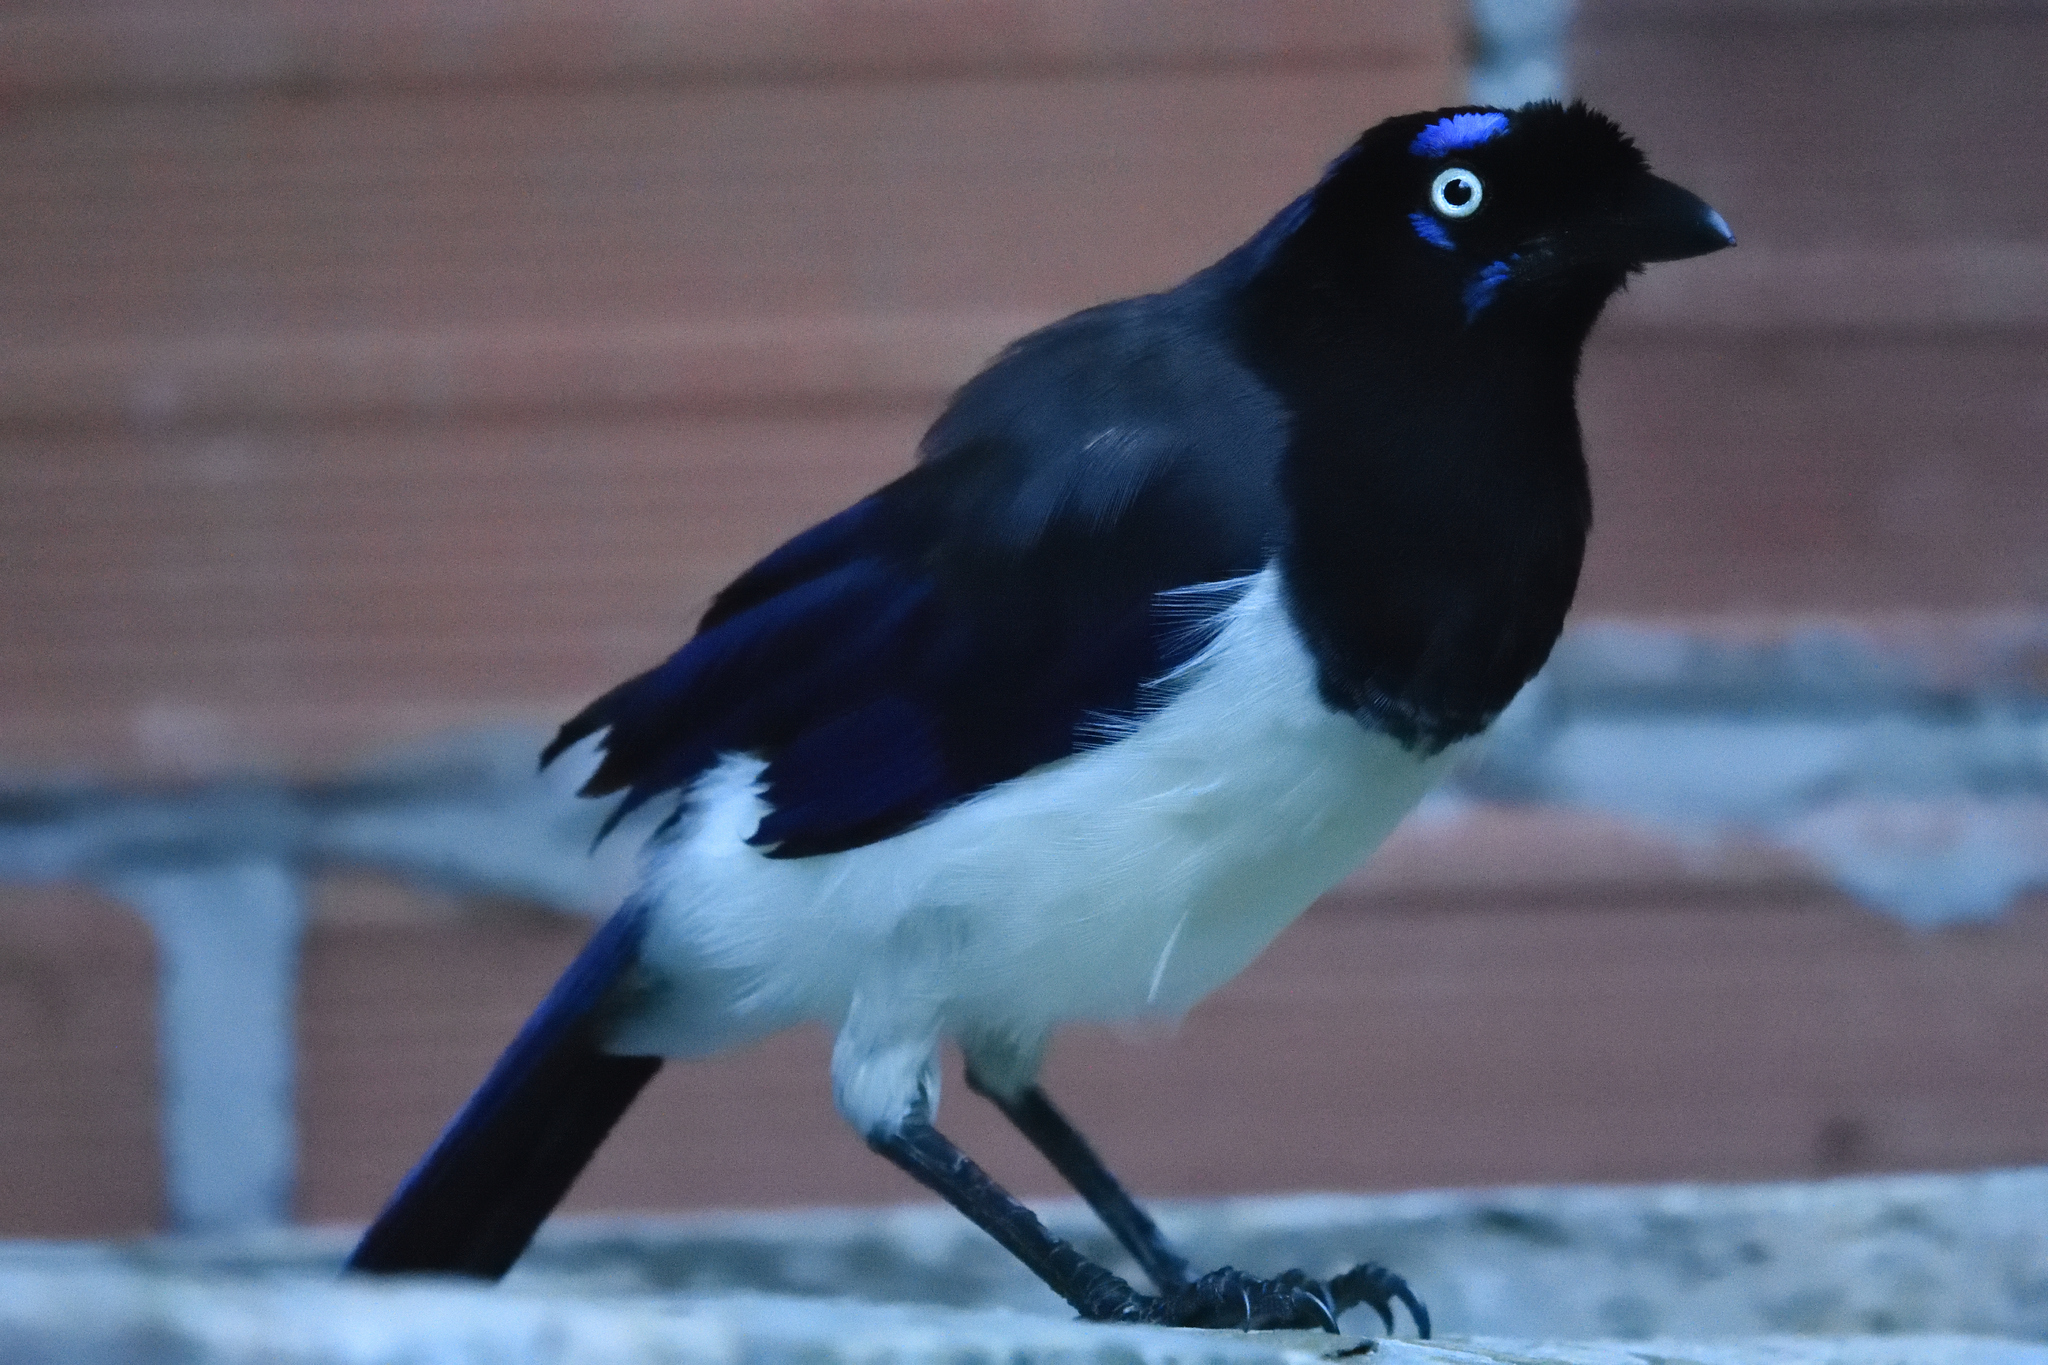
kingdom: Animalia
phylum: Chordata
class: Aves
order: Passeriformes
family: Corvidae
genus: Cyanocorax
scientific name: Cyanocorax affinis
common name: Black-chested jay
